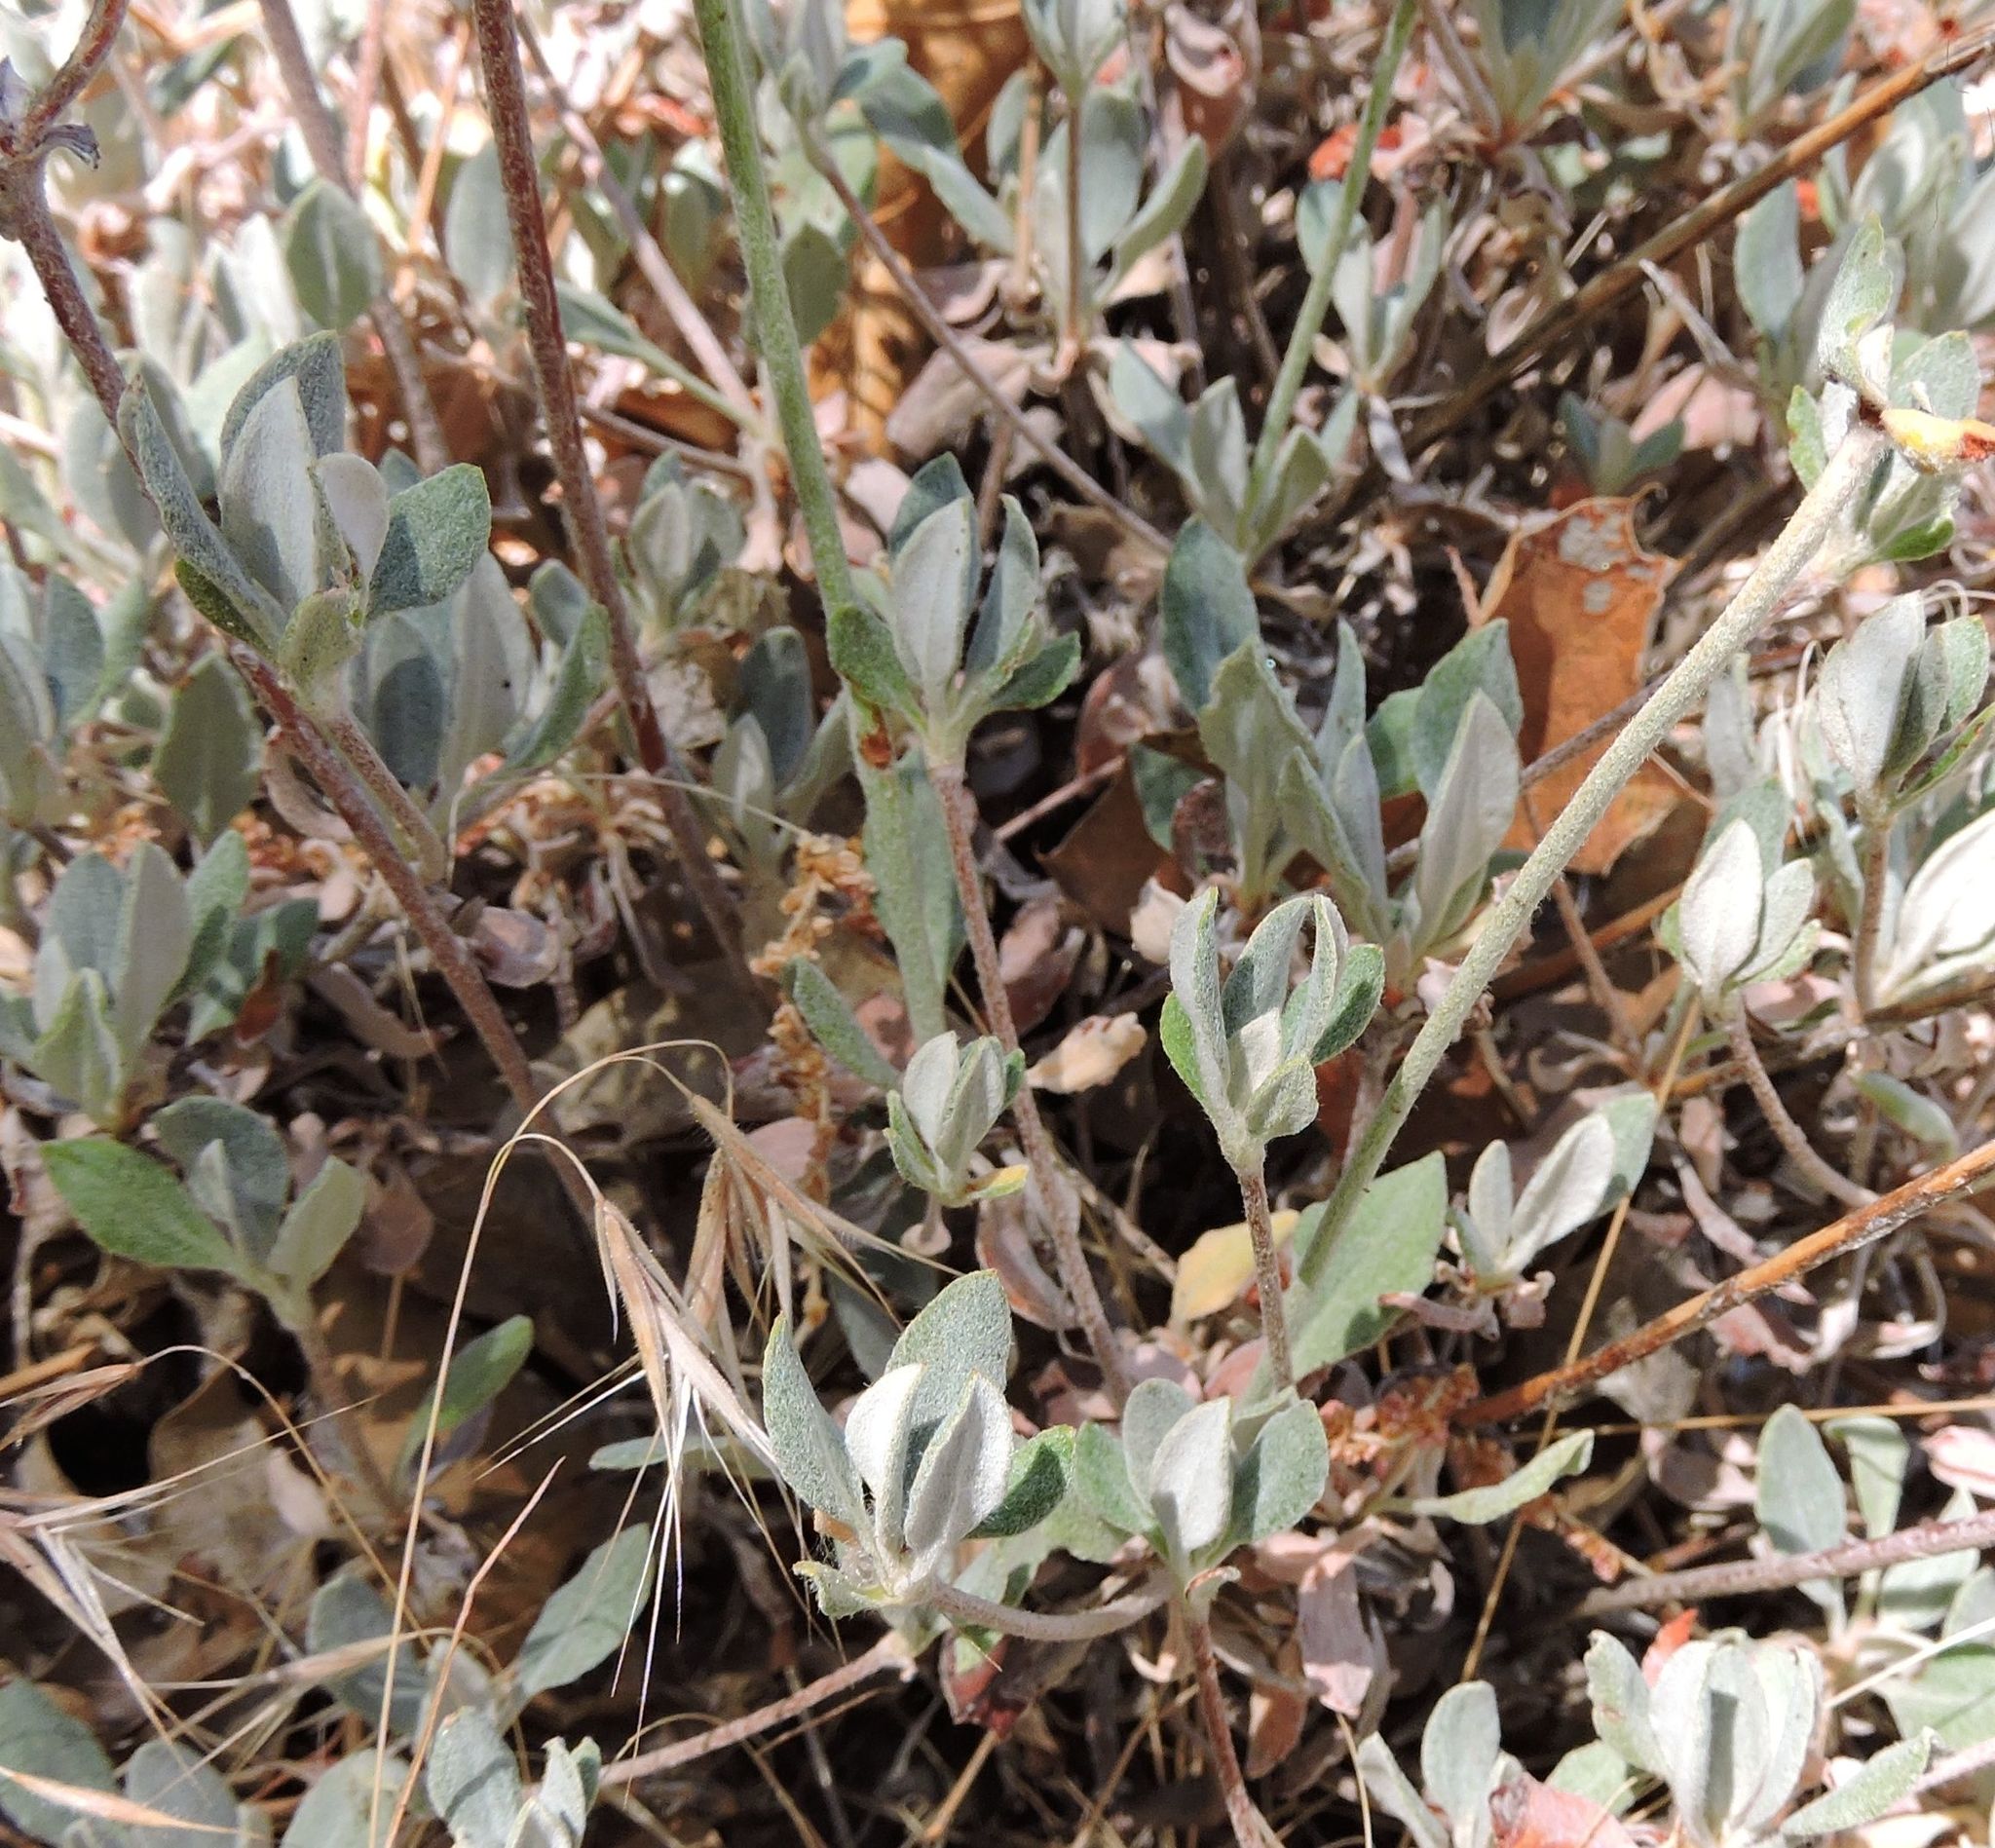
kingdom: Plantae
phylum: Tracheophyta
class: Magnoliopsida
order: Caryophyllales
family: Polygonaceae
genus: Eriogonum
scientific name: Eriogonum umbellatum
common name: Sulfur-buckwheat
